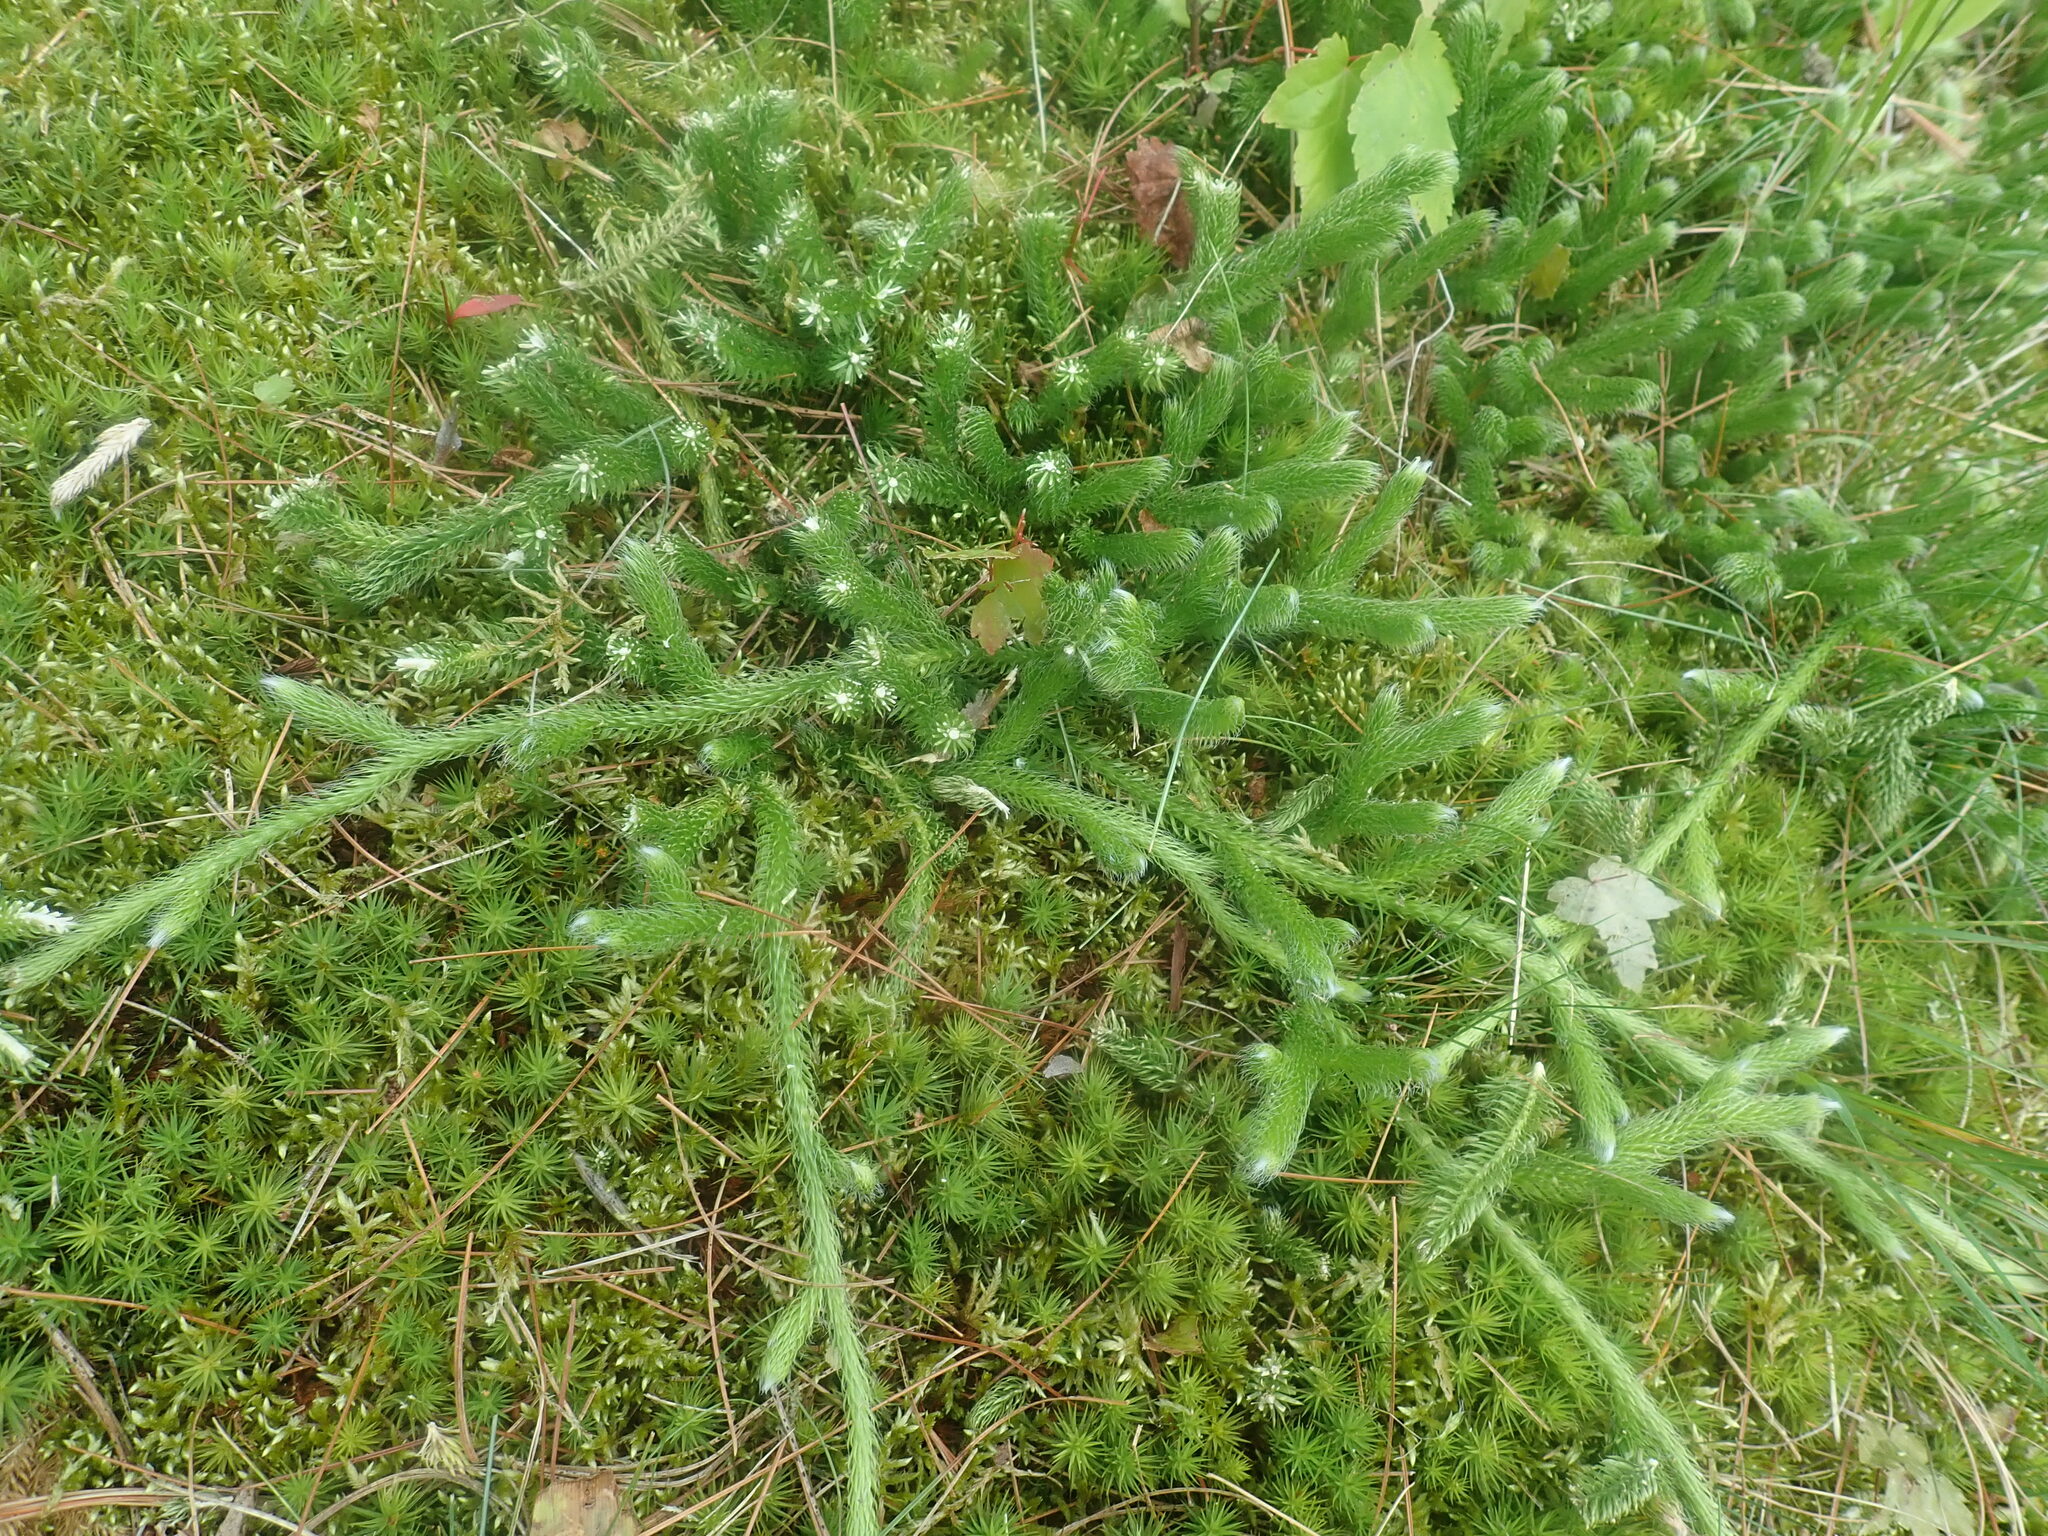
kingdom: Plantae
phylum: Tracheophyta
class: Lycopodiopsida
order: Lycopodiales
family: Lycopodiaceae
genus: Lycopodium
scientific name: Lycopodium clavatum
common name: Stag's-horn clubmoss
